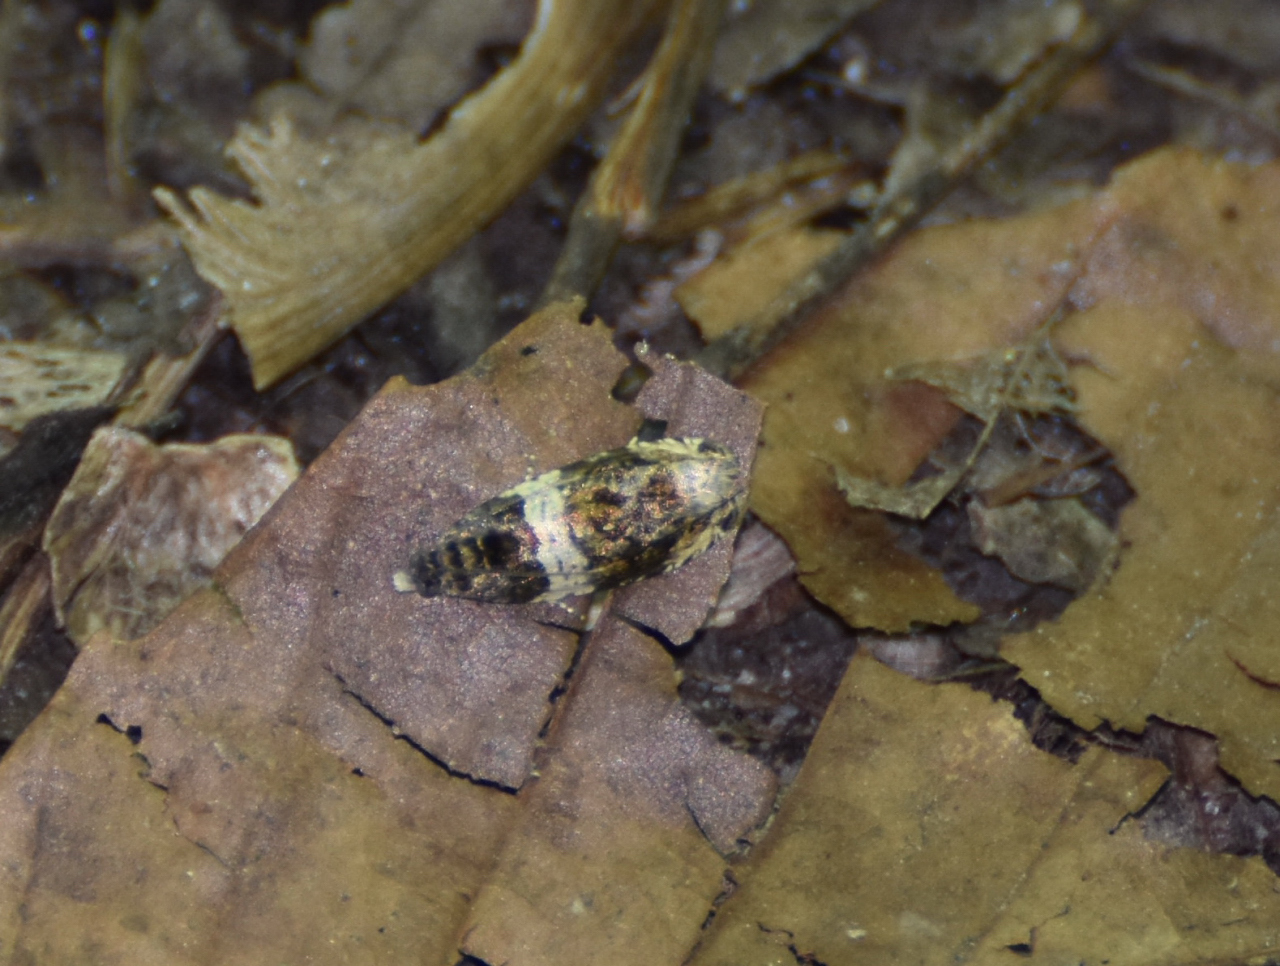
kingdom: Animalia
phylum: Arthropoda
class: Insecta
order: Lepidoptera
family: Tortricidae
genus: Olethreutes
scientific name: Olethreutes fasciatana
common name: Banded olethreutes moth
